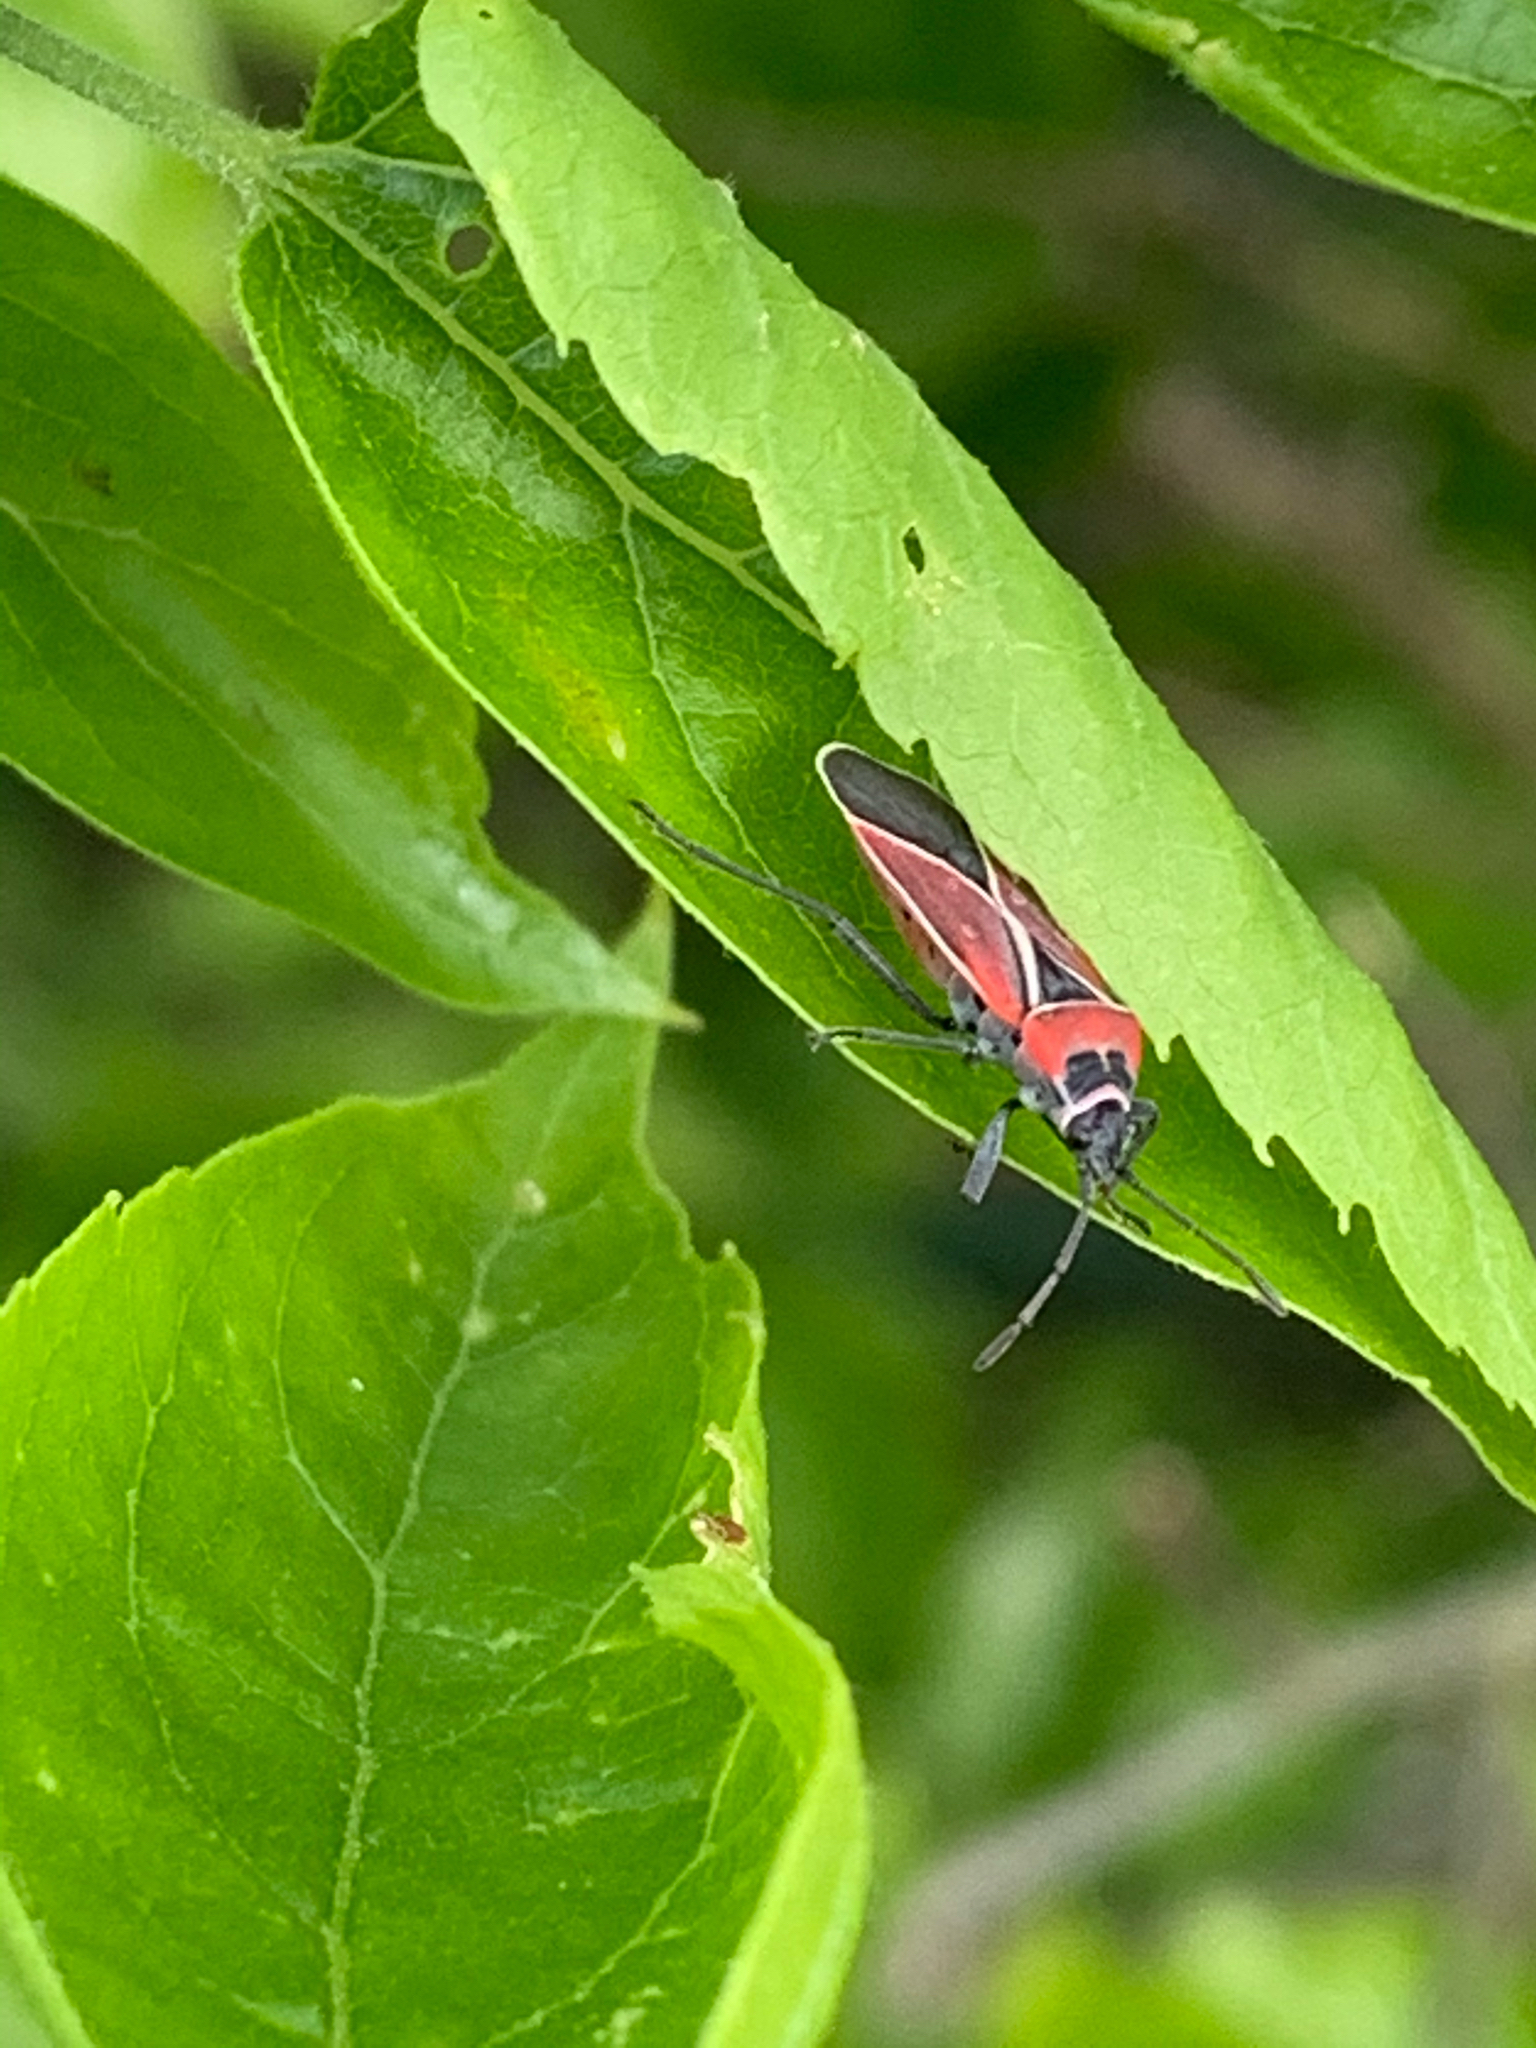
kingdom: Animalia
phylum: Arthropoda
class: Insecta
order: Hemiptera
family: Lygaeidae
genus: Neacoryphus
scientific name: Neacoryphus bicrucis
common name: Lygaeid bug
